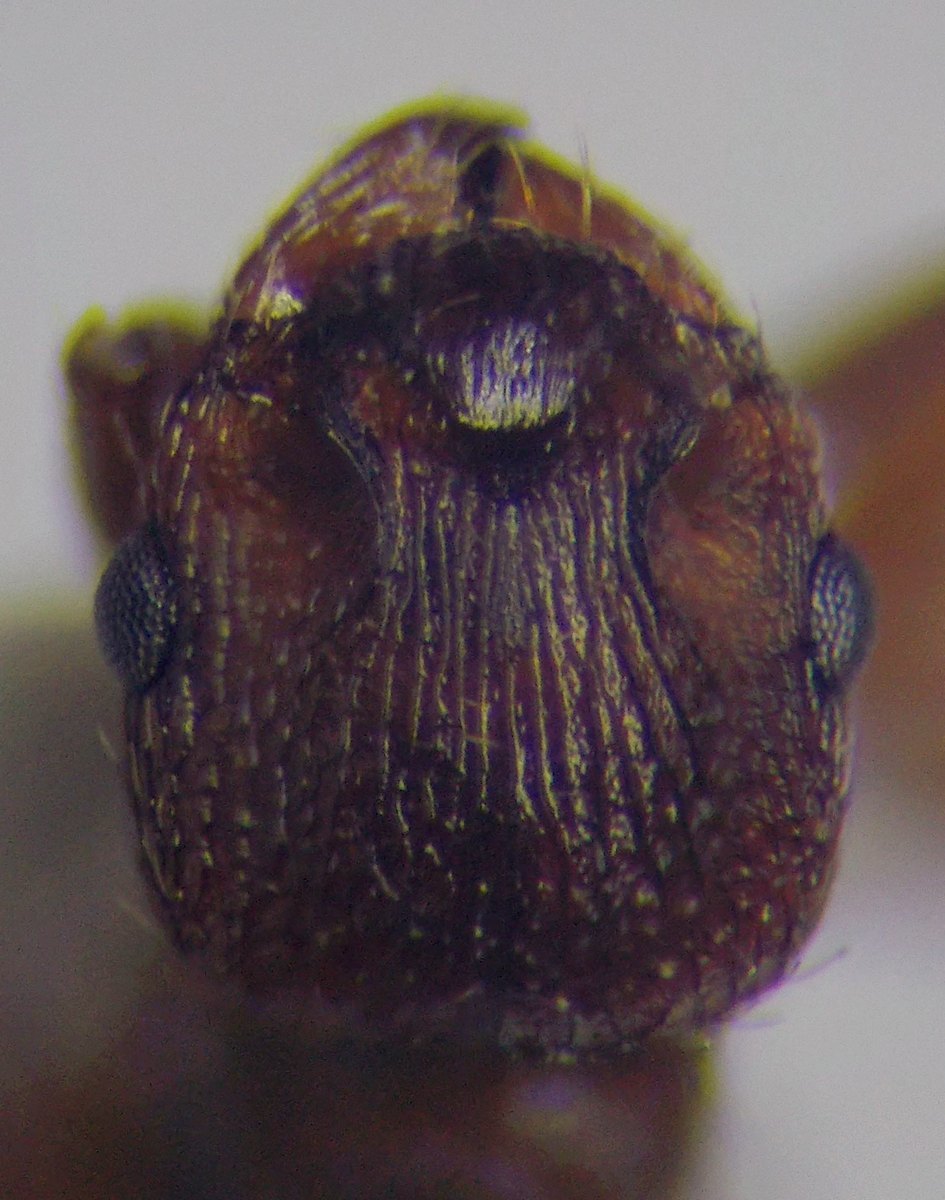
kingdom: Animalia
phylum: Arthropoda
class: Insecta
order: Hymenoptera
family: Formicidae
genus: Myrmica
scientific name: Myrmica scabrinodis
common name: Ant
